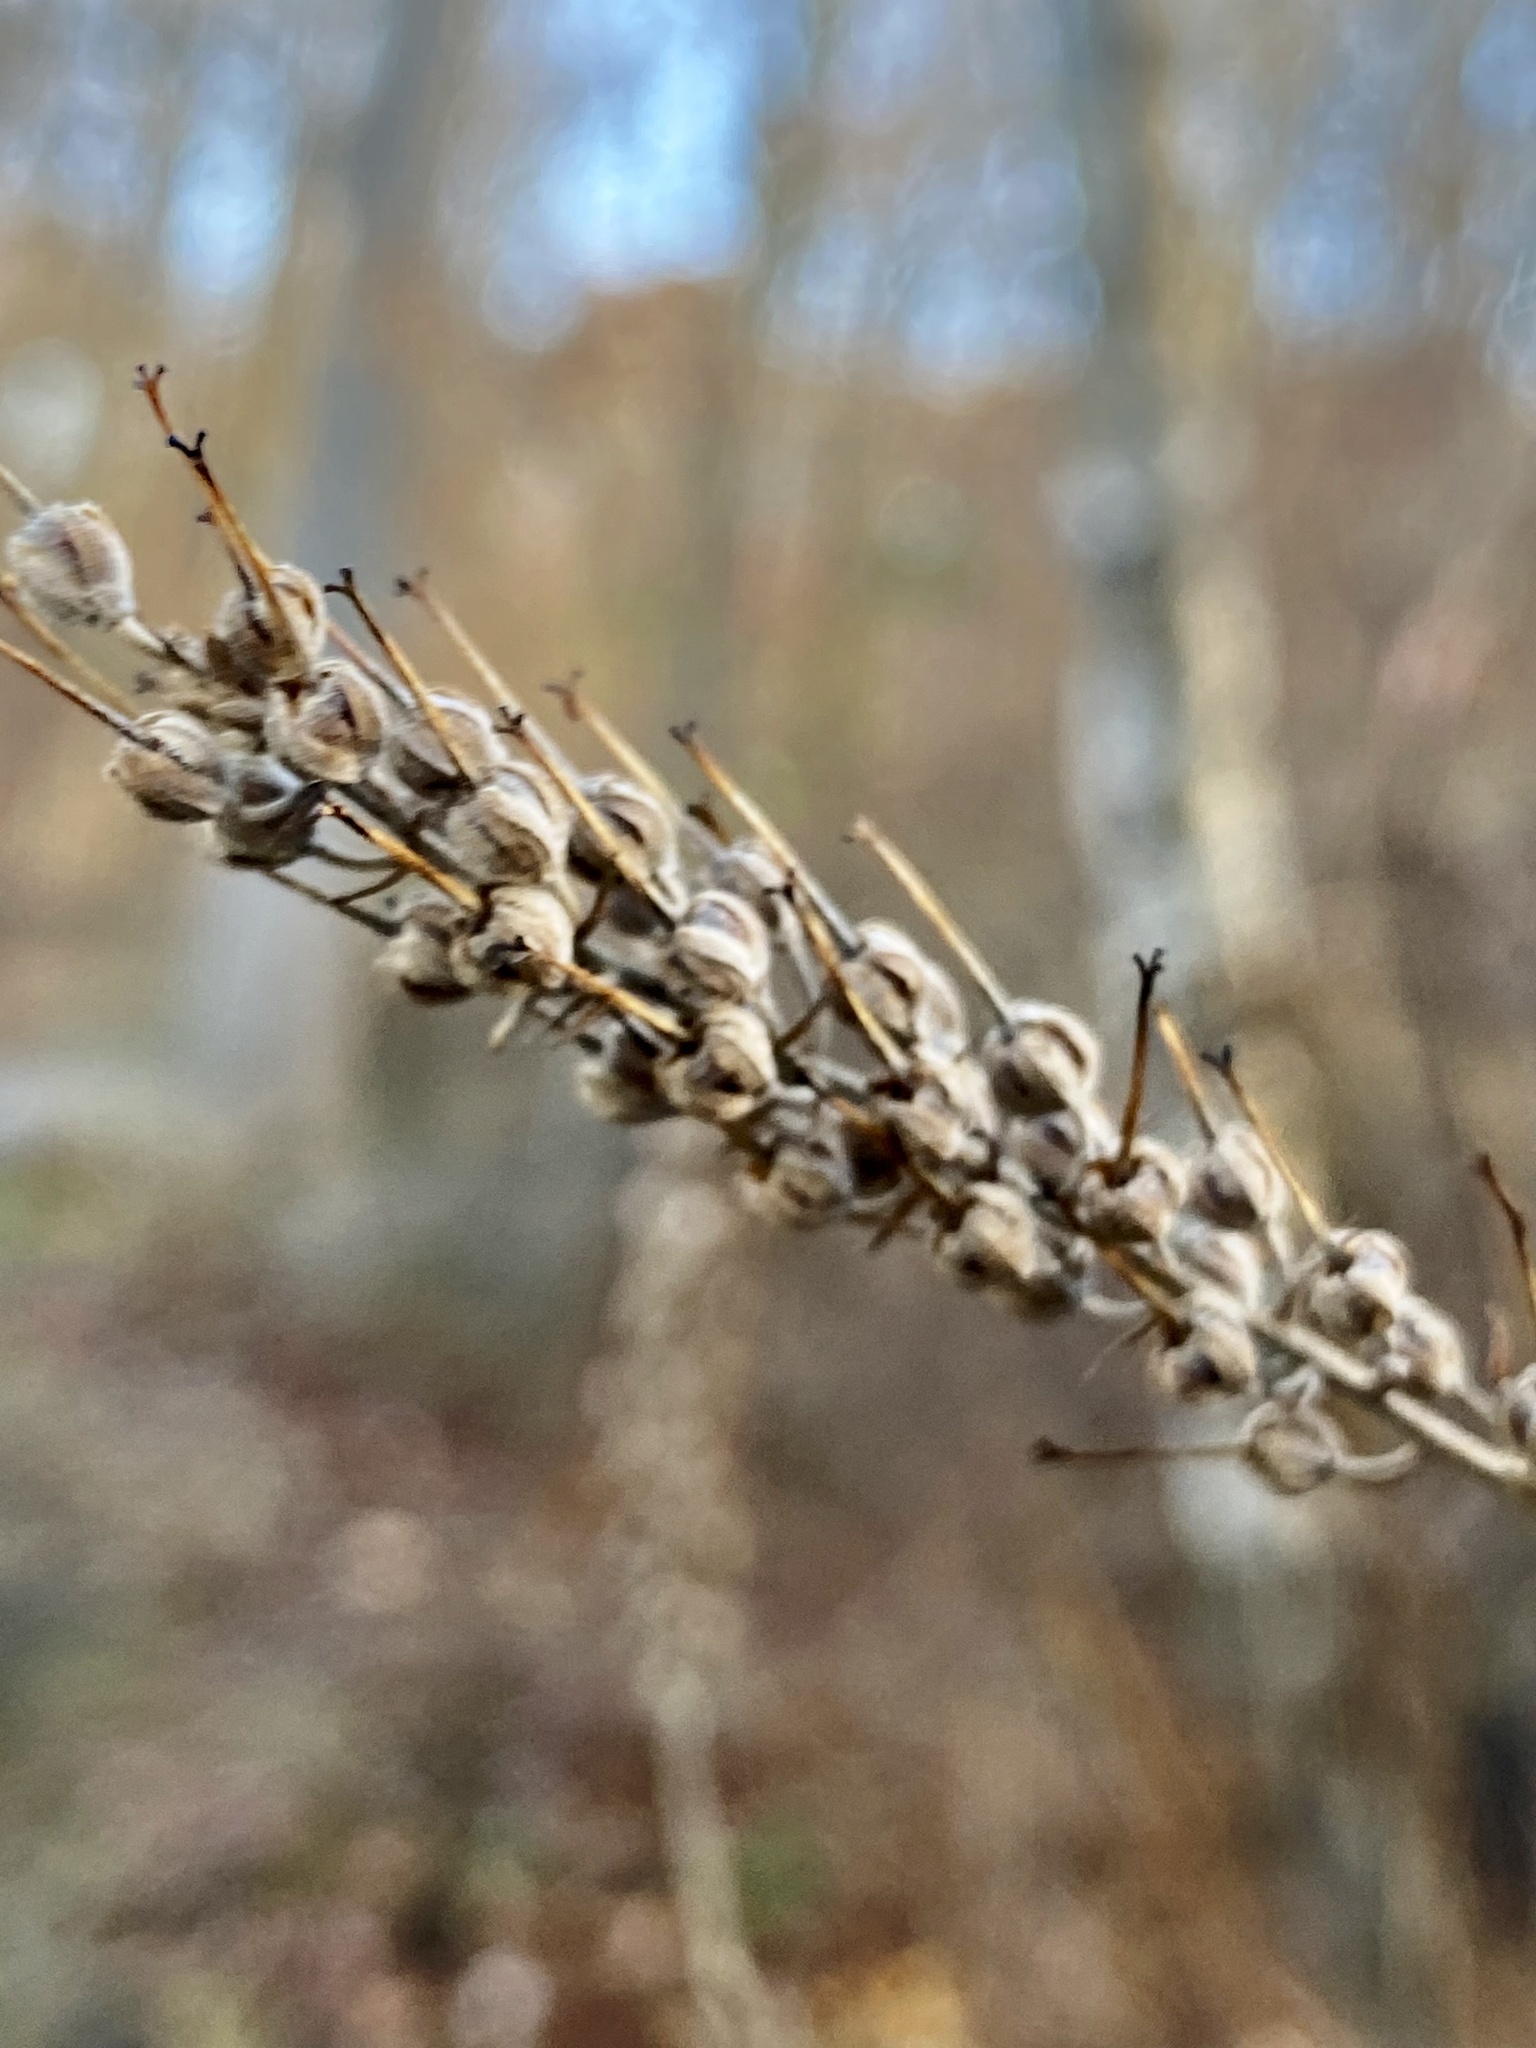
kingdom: Plantae
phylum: Tracheophyta
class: Magnoliopsida
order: Ericales
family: Clethraceae
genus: Clethra
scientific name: Clethra alnifolia
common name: Sweet pepperbush
